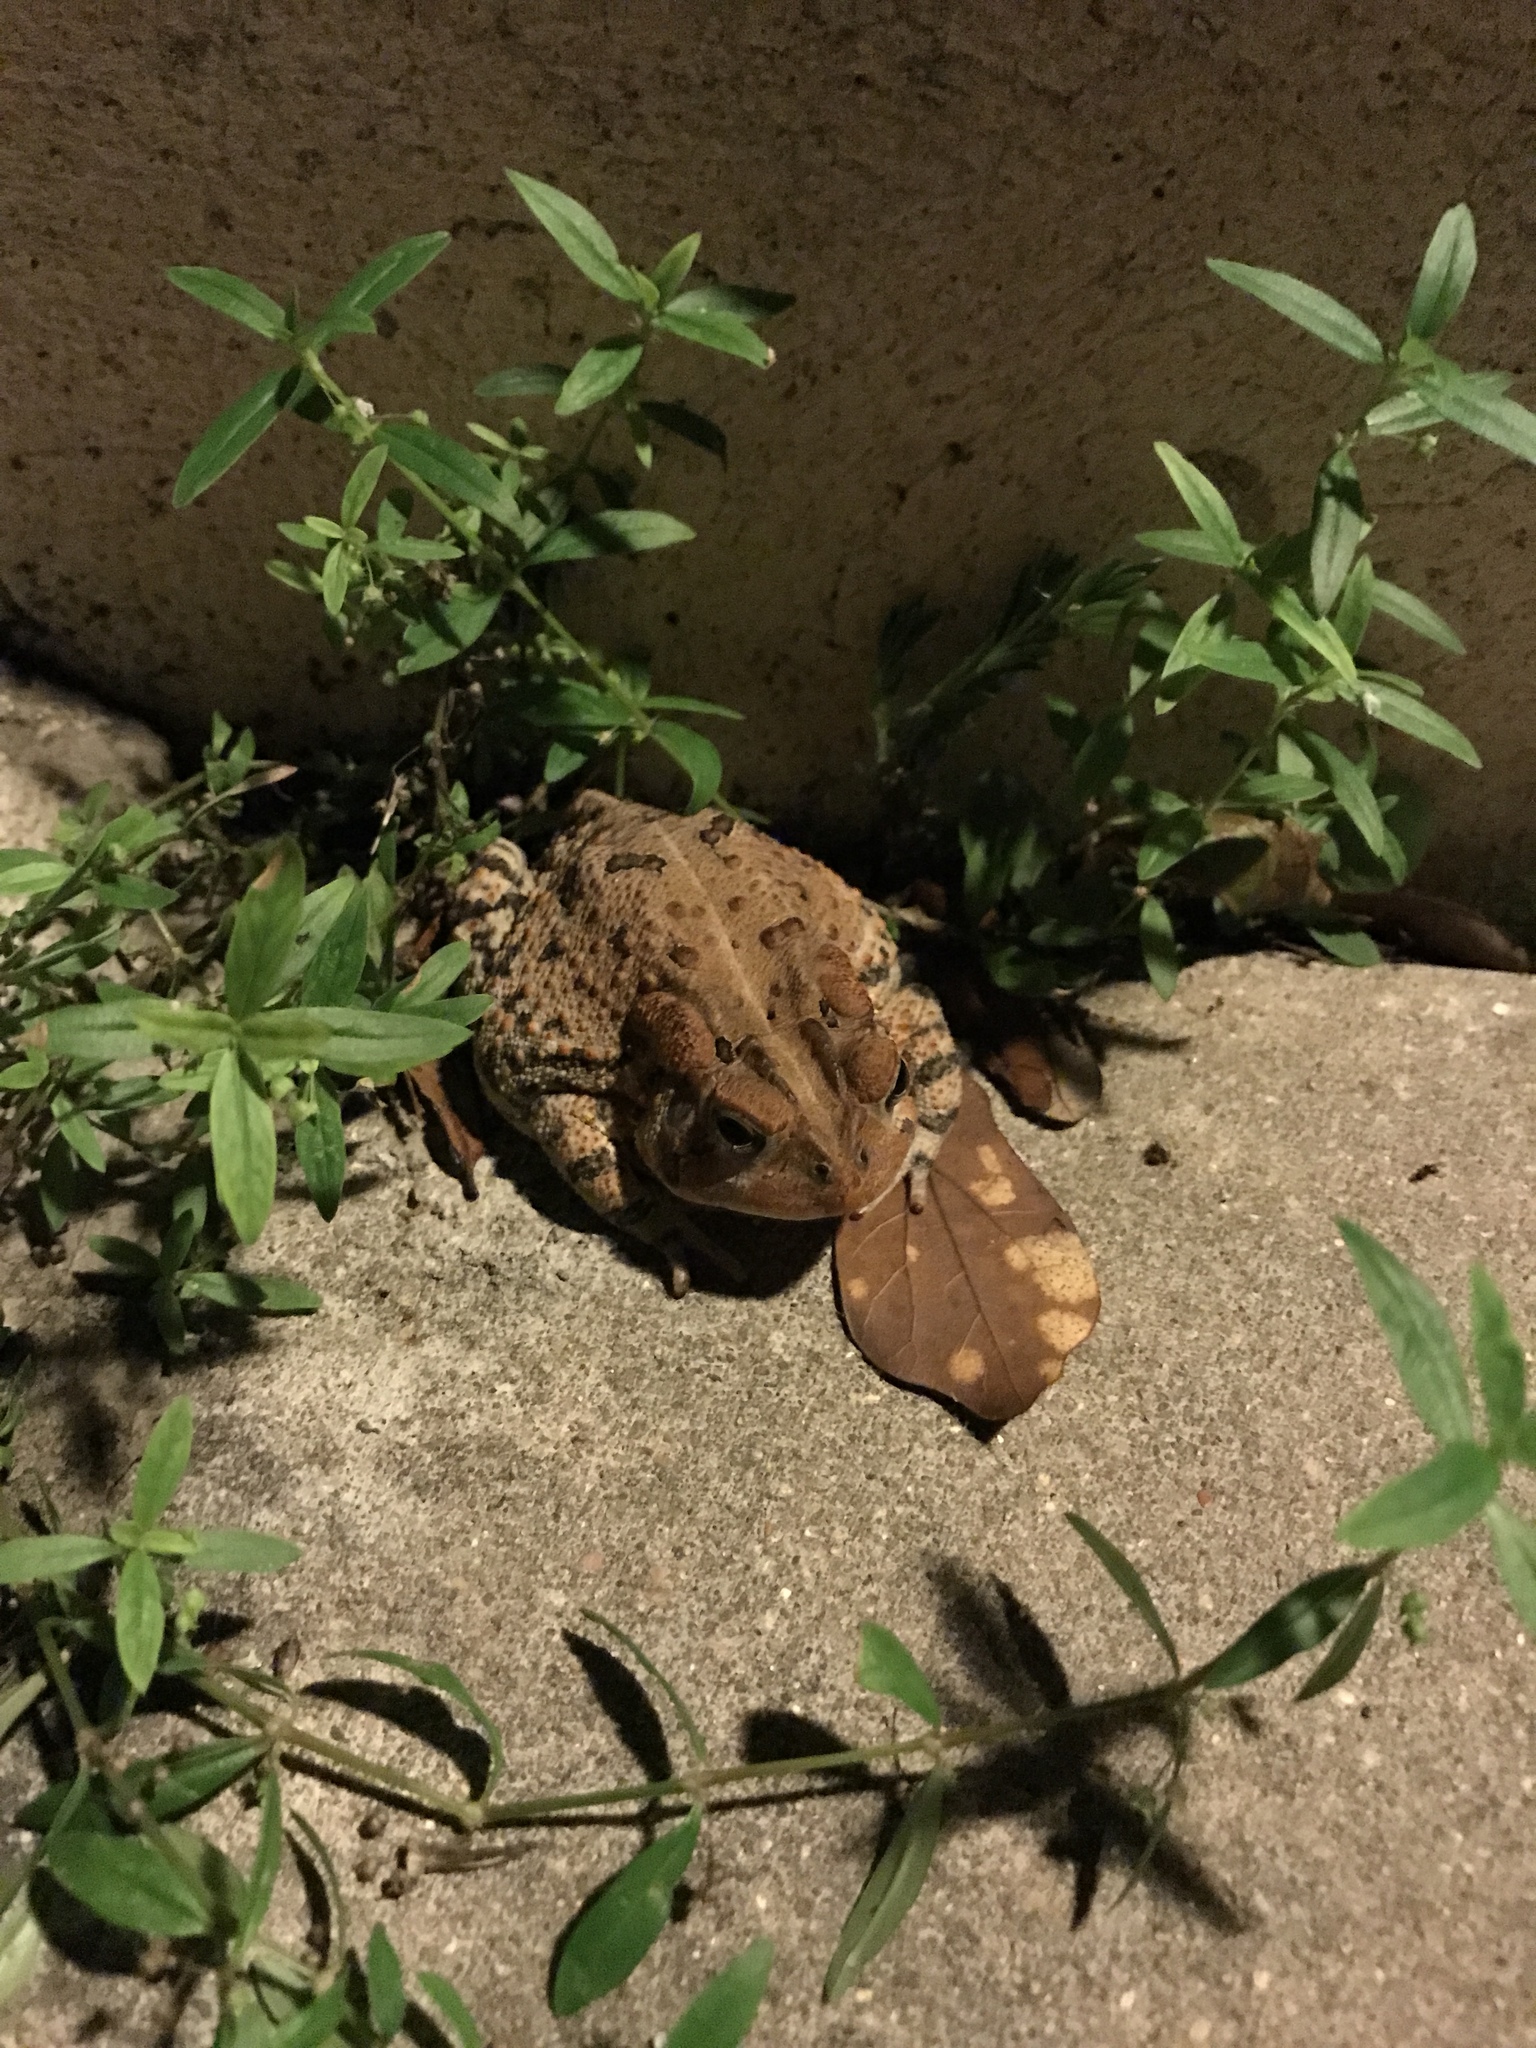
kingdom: Animalia
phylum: Chordata
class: Amphibia
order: Anura
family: Bufonidae
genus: Anaxyrus
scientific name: Anaxyrus terrestris
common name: Southern toad
